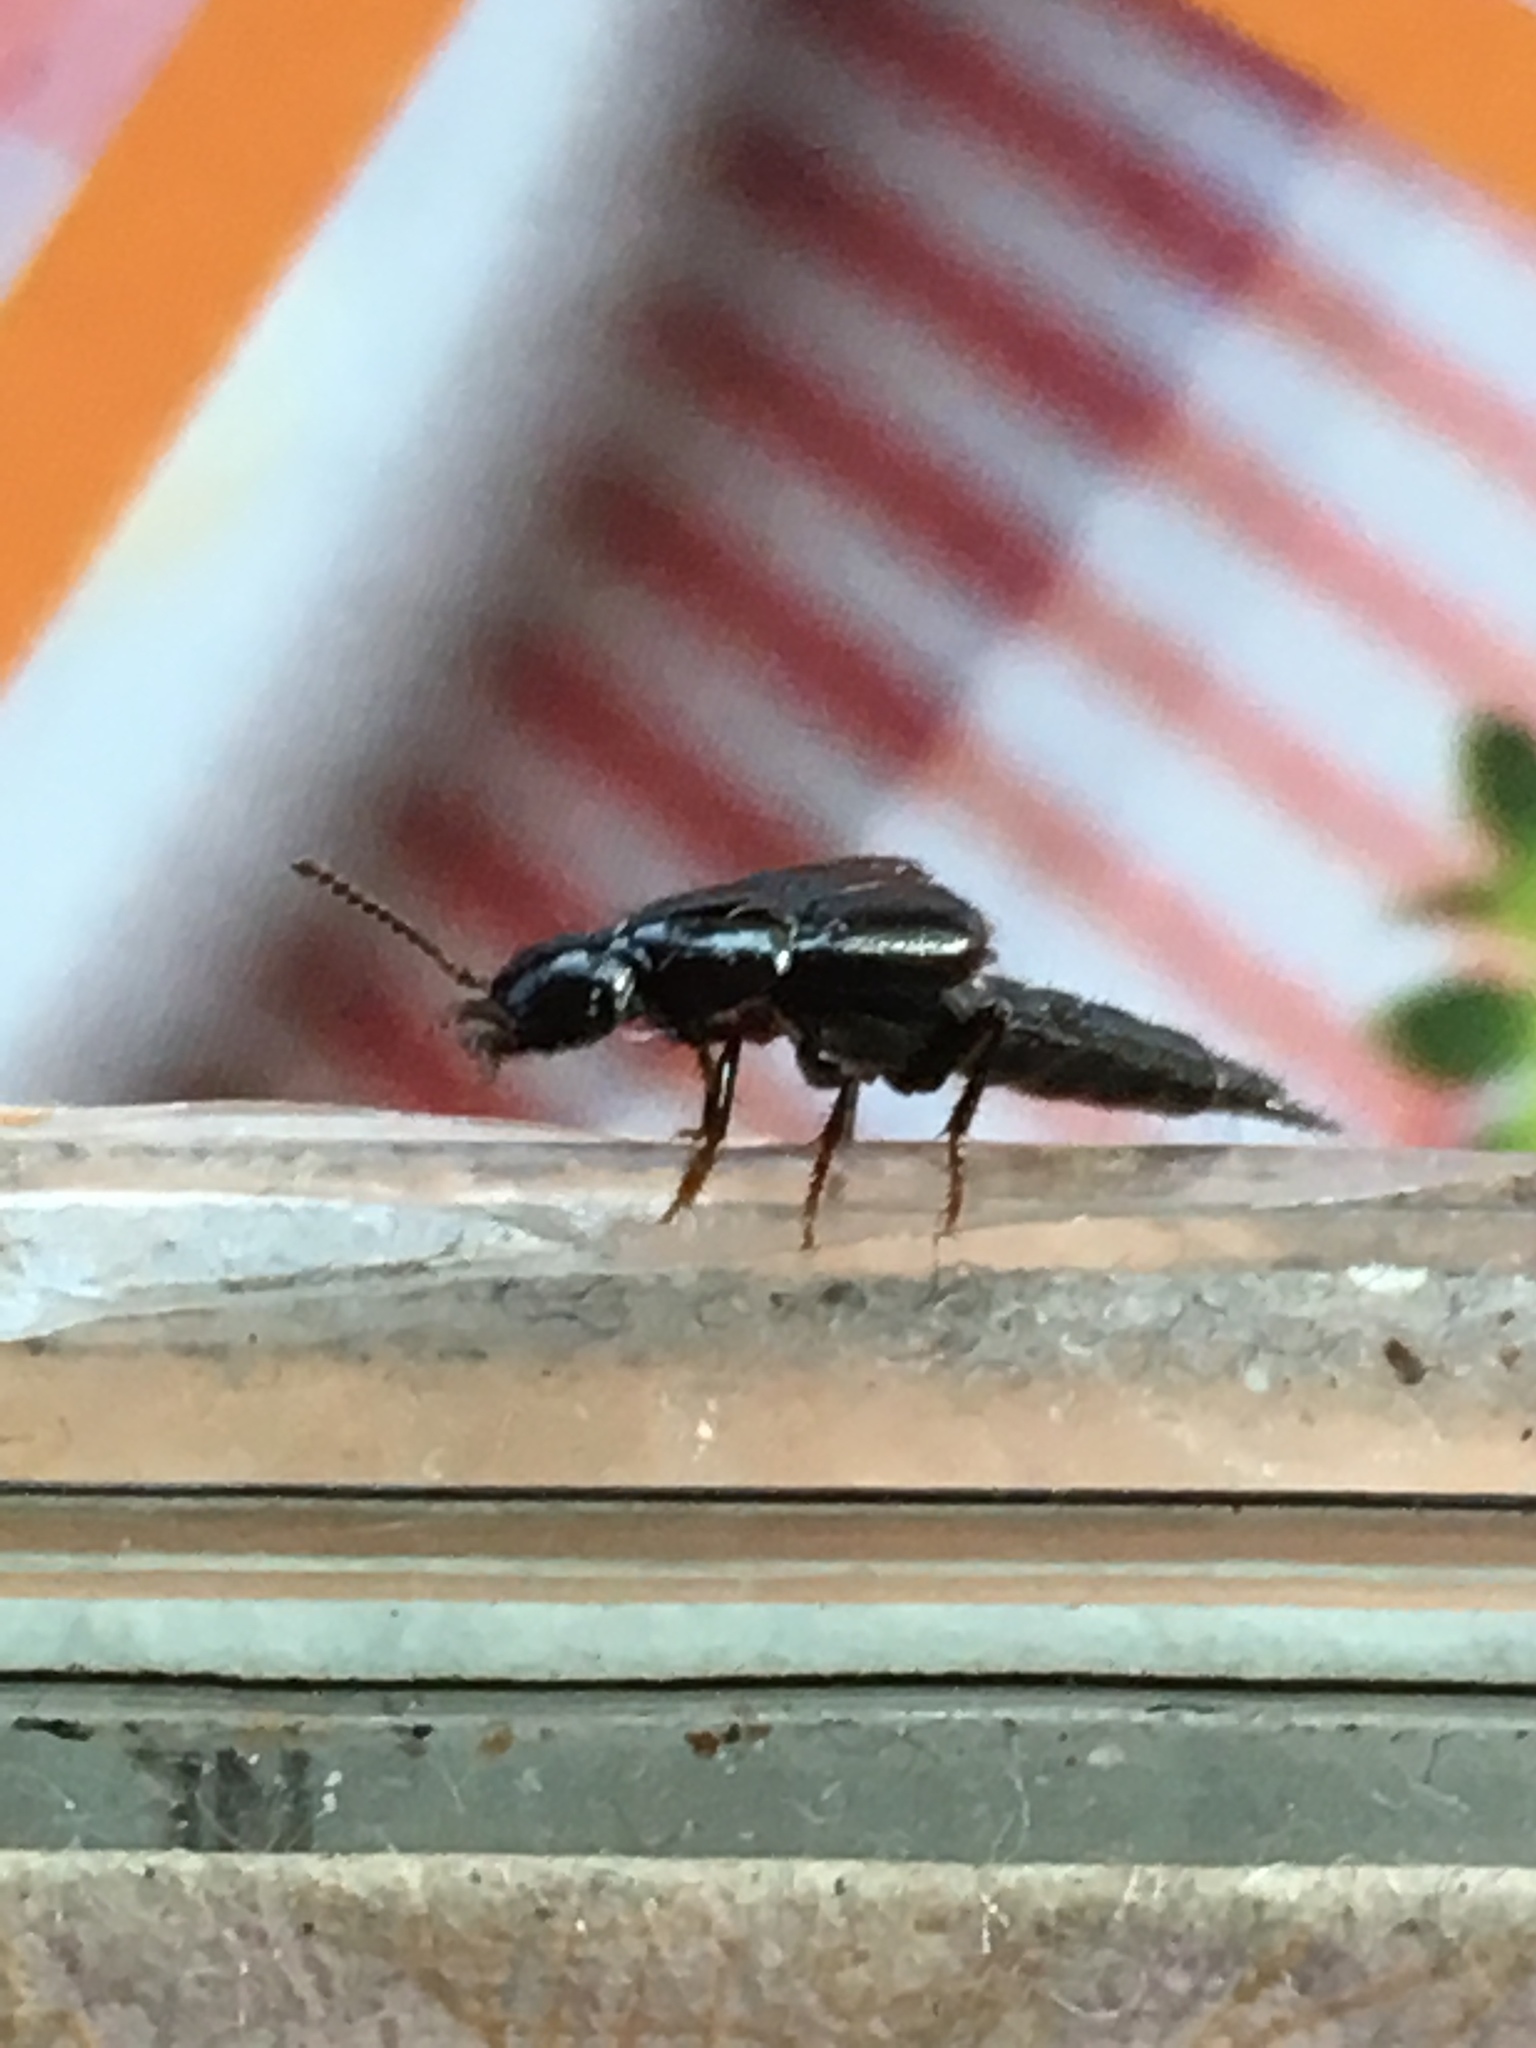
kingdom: Animalia
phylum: Arthropoda
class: Insecta
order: Coleoptera
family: Staphylinidae
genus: Quedius
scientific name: Quedius mesomelinus
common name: Staph beetle
